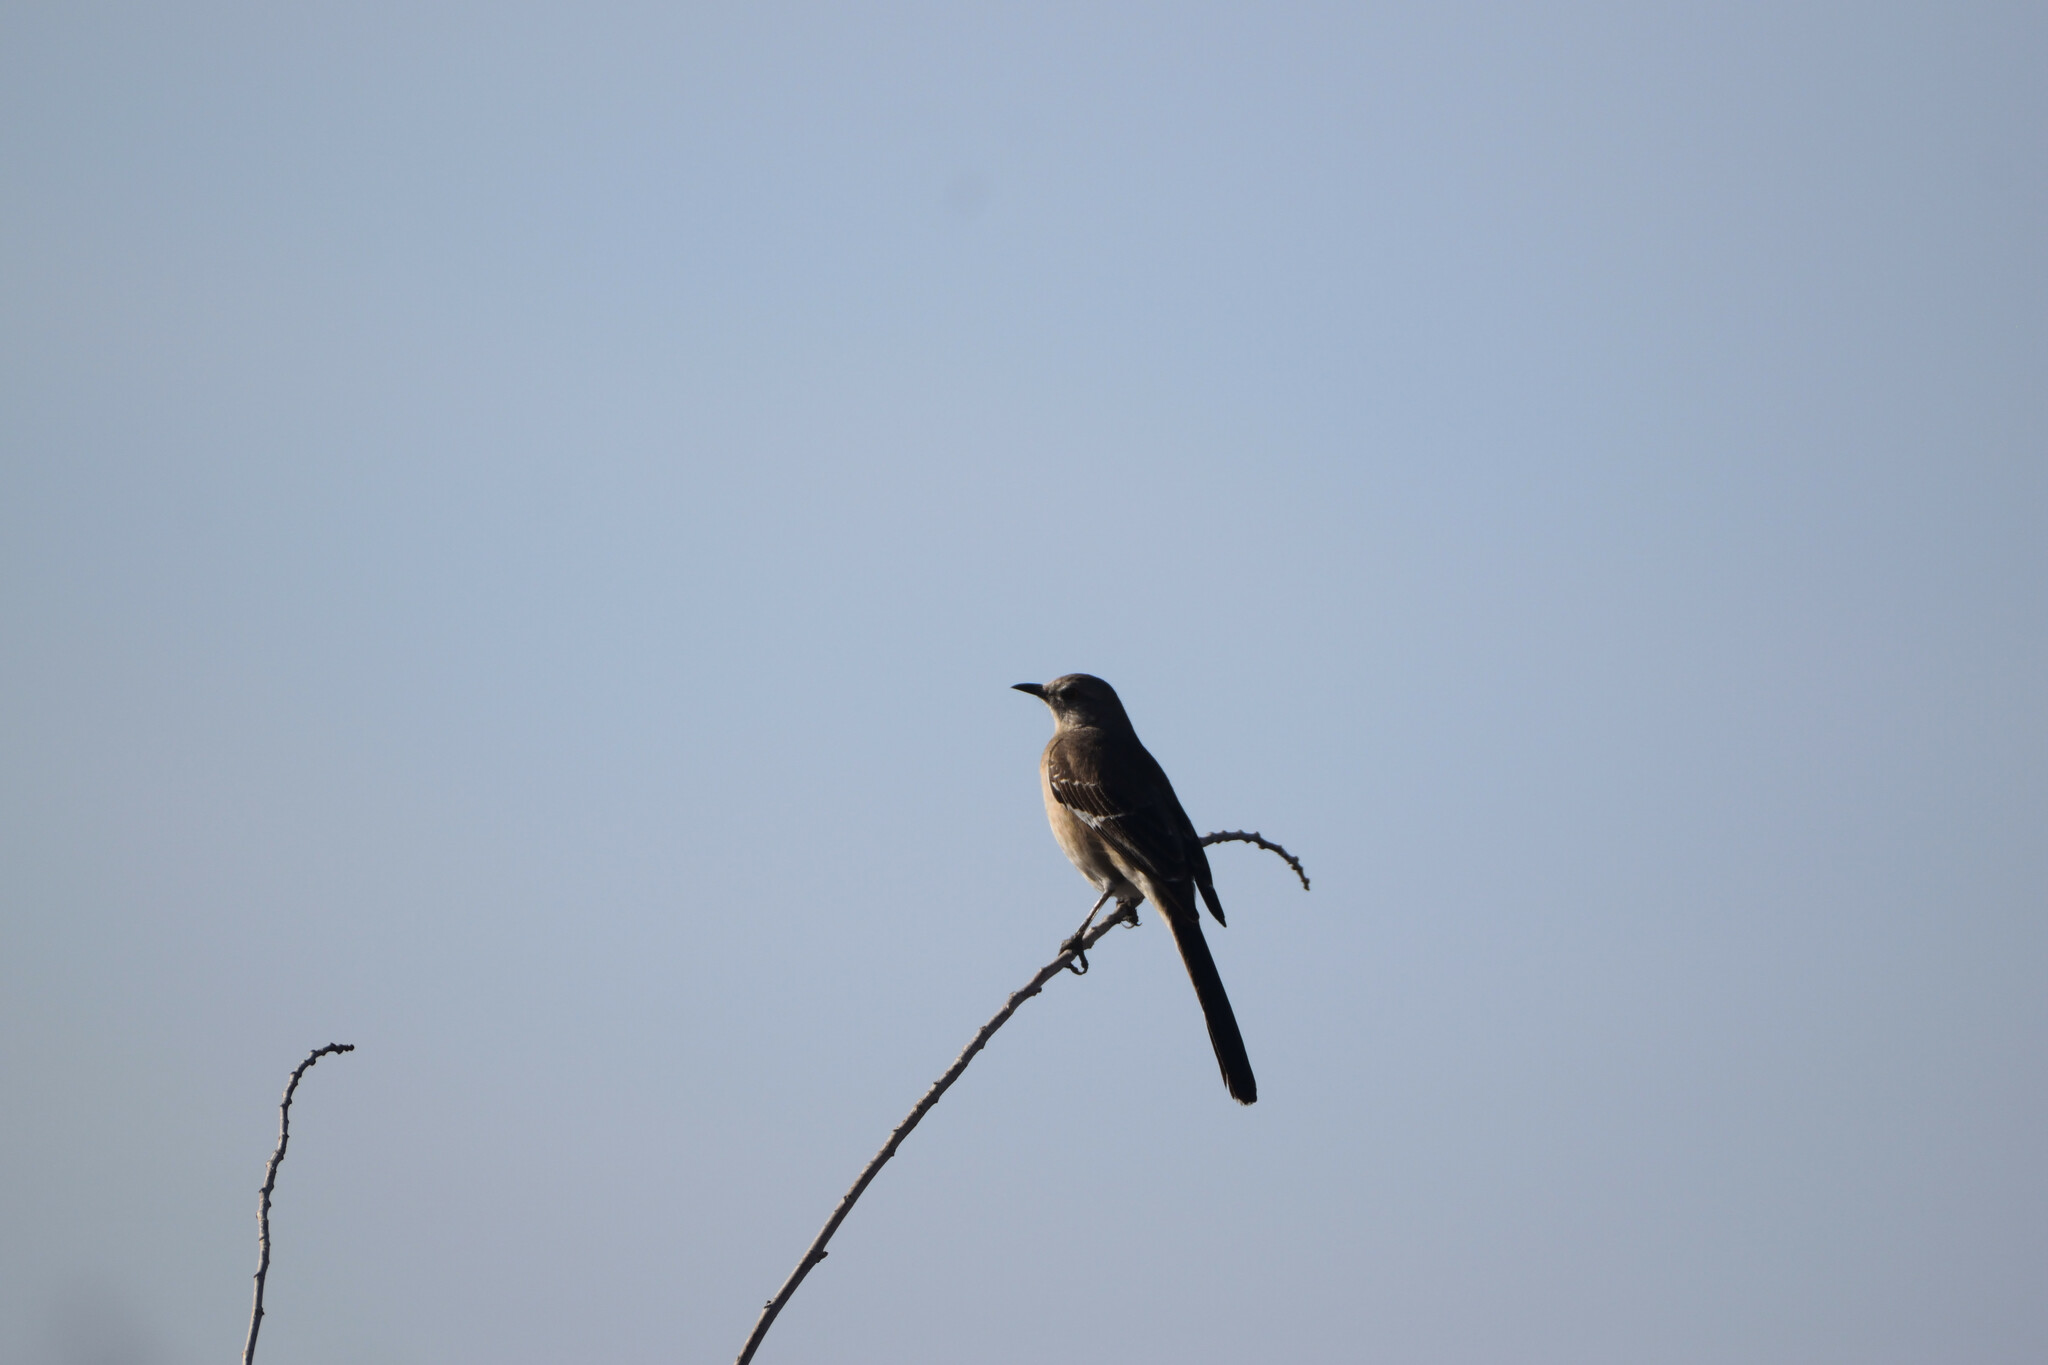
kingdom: Animalia
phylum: Chordata
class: Aves
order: Passeriformes
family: Mimidae
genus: Mimus
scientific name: Mimus polyglottos
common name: Northern mockingbird
